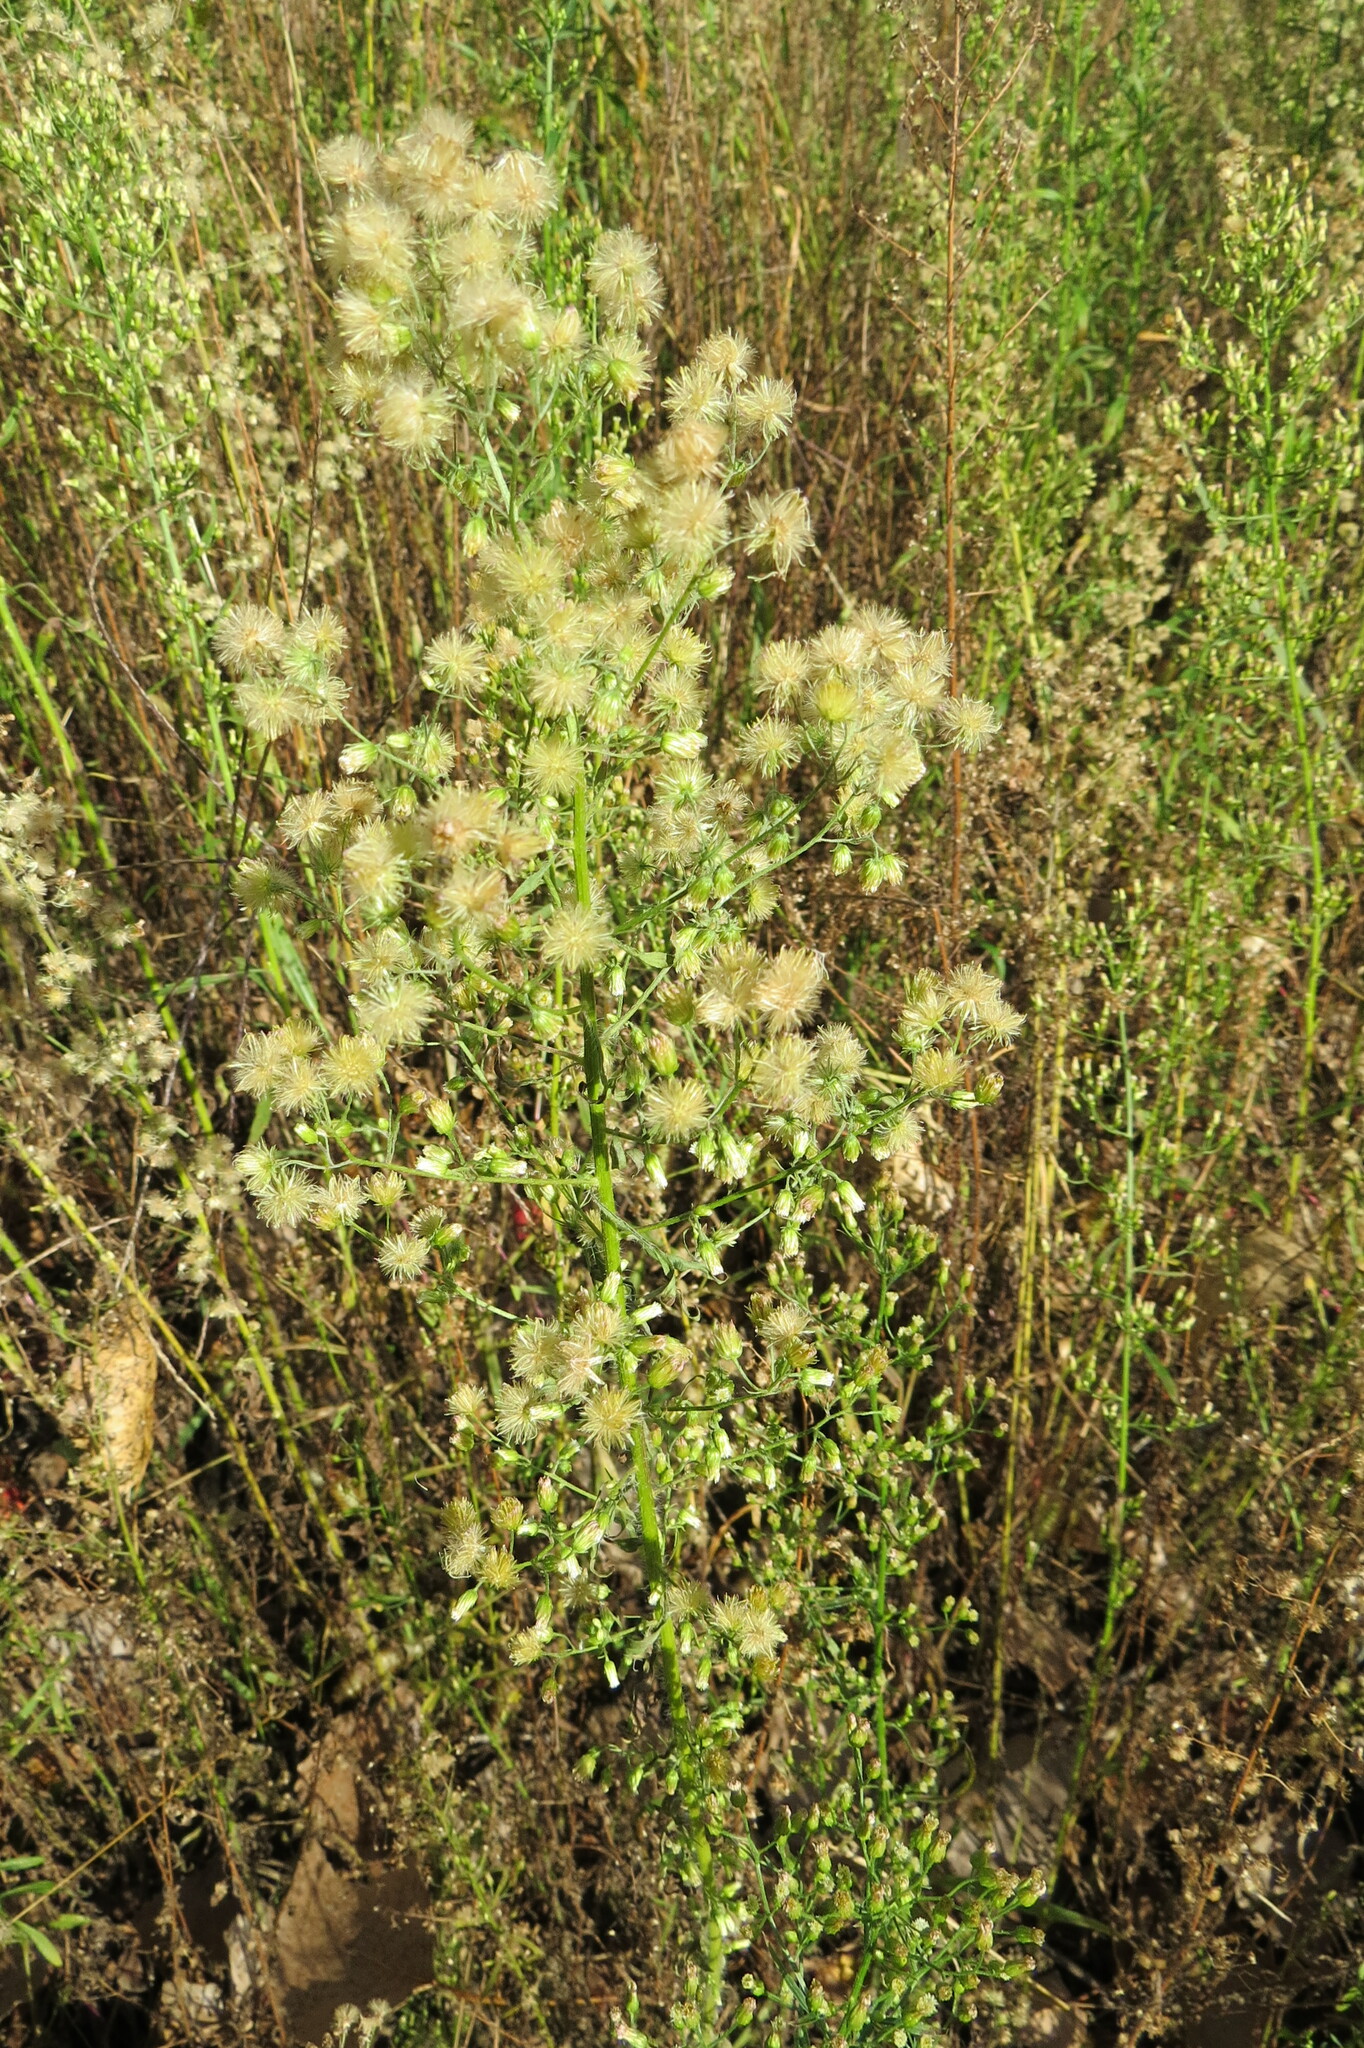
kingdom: Plantae
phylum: Tracheophyta
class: Magnoliopsida
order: Asterales
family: Asteraceae
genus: Erigeron
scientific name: Erigeron canadensis
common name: Canadian fleabane
